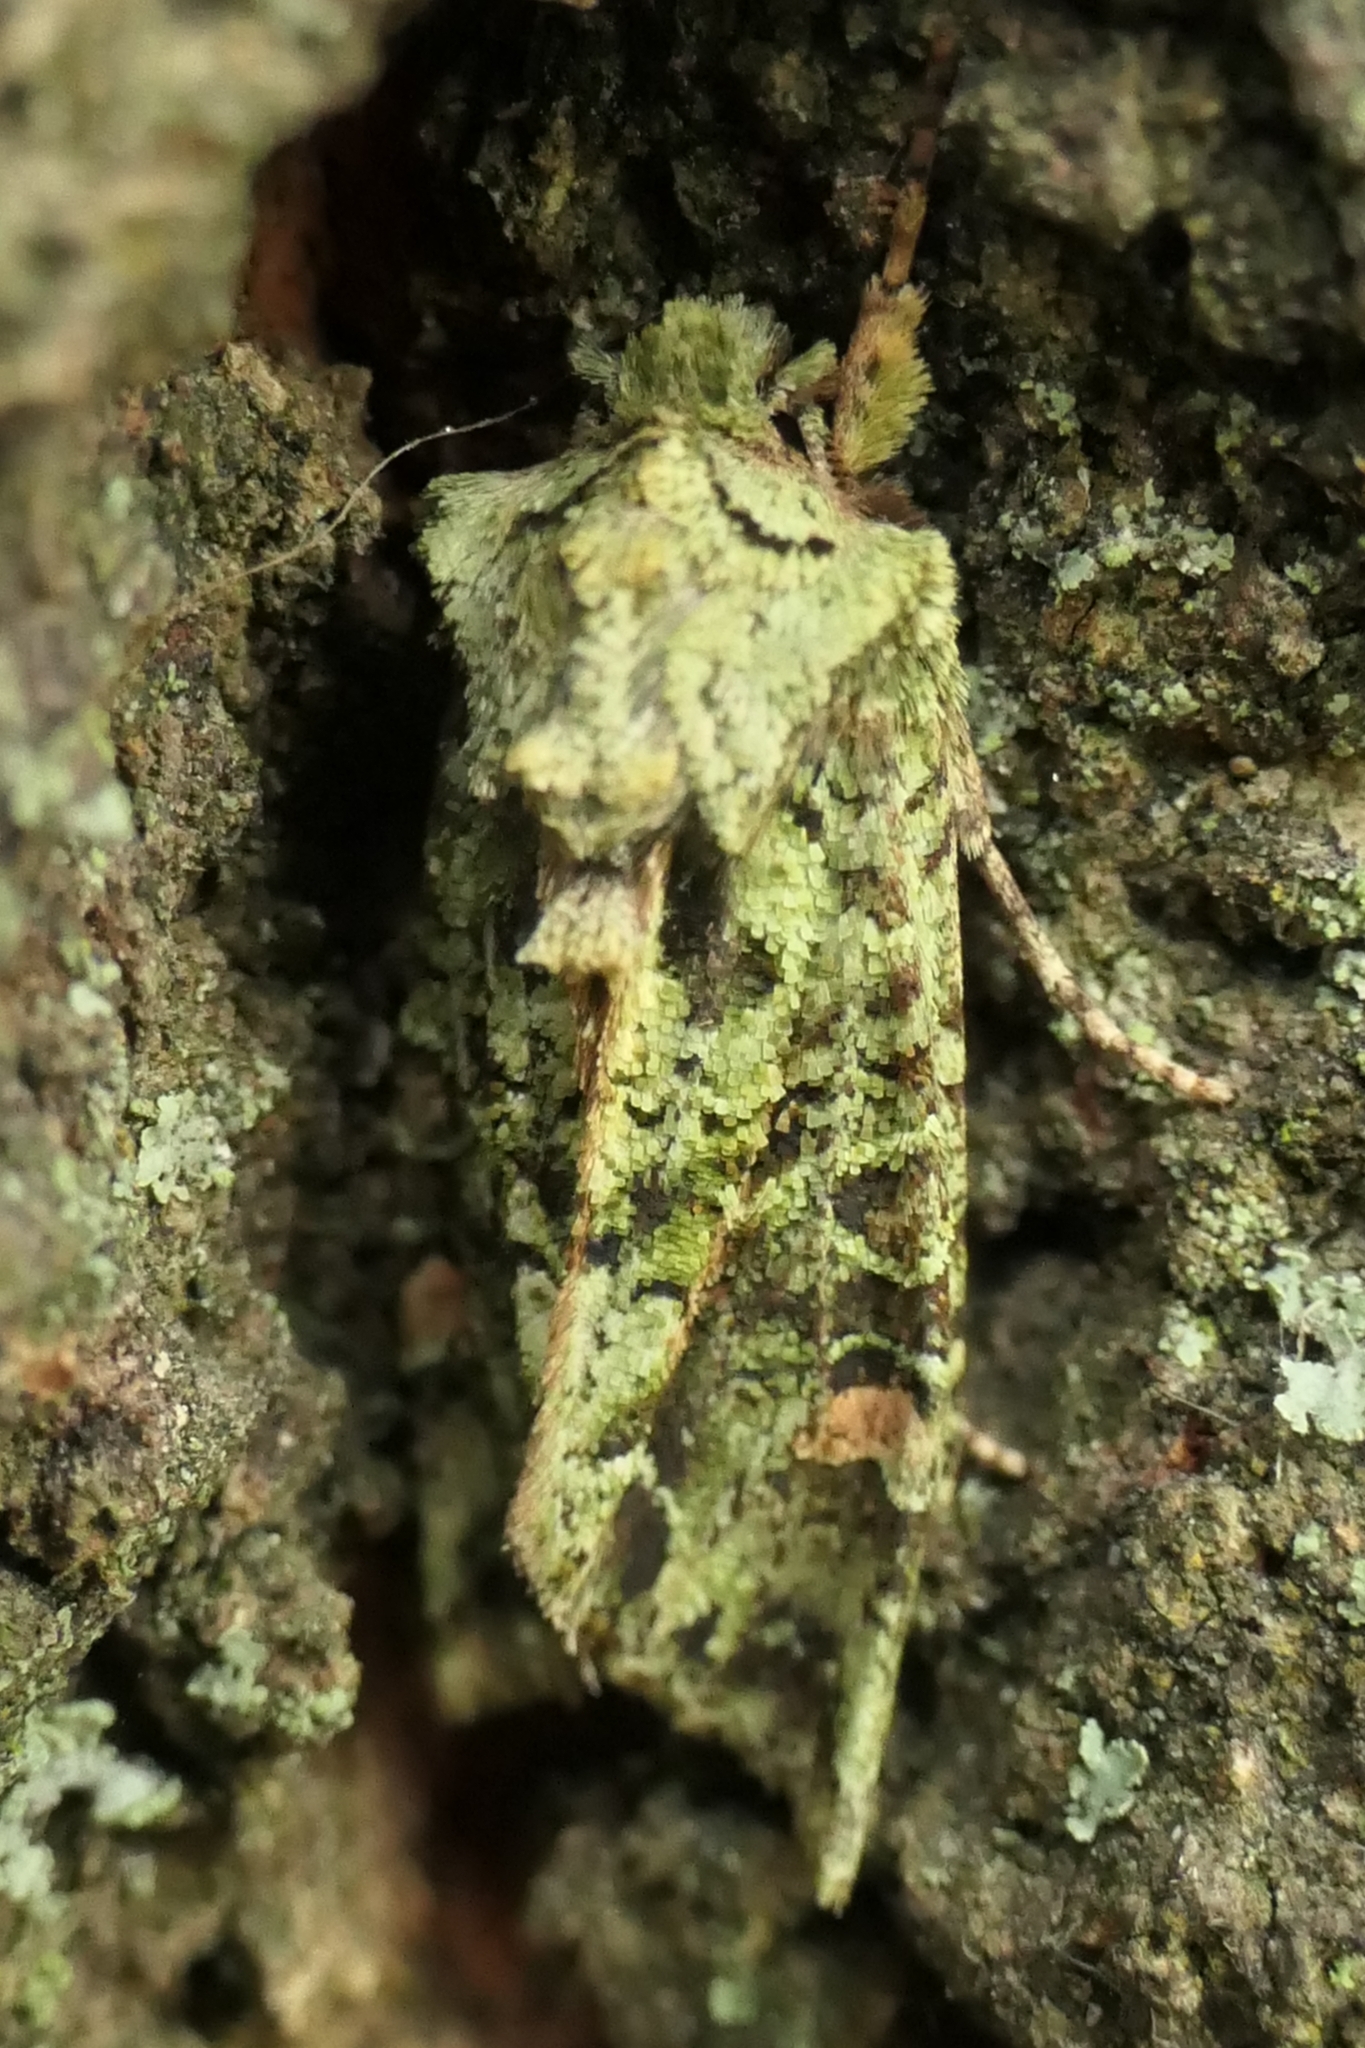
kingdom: Animalia
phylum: Arthropoda
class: Insecta
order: Lepidoptera
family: Noctuidae
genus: Ichneutica
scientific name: Ichneutica
